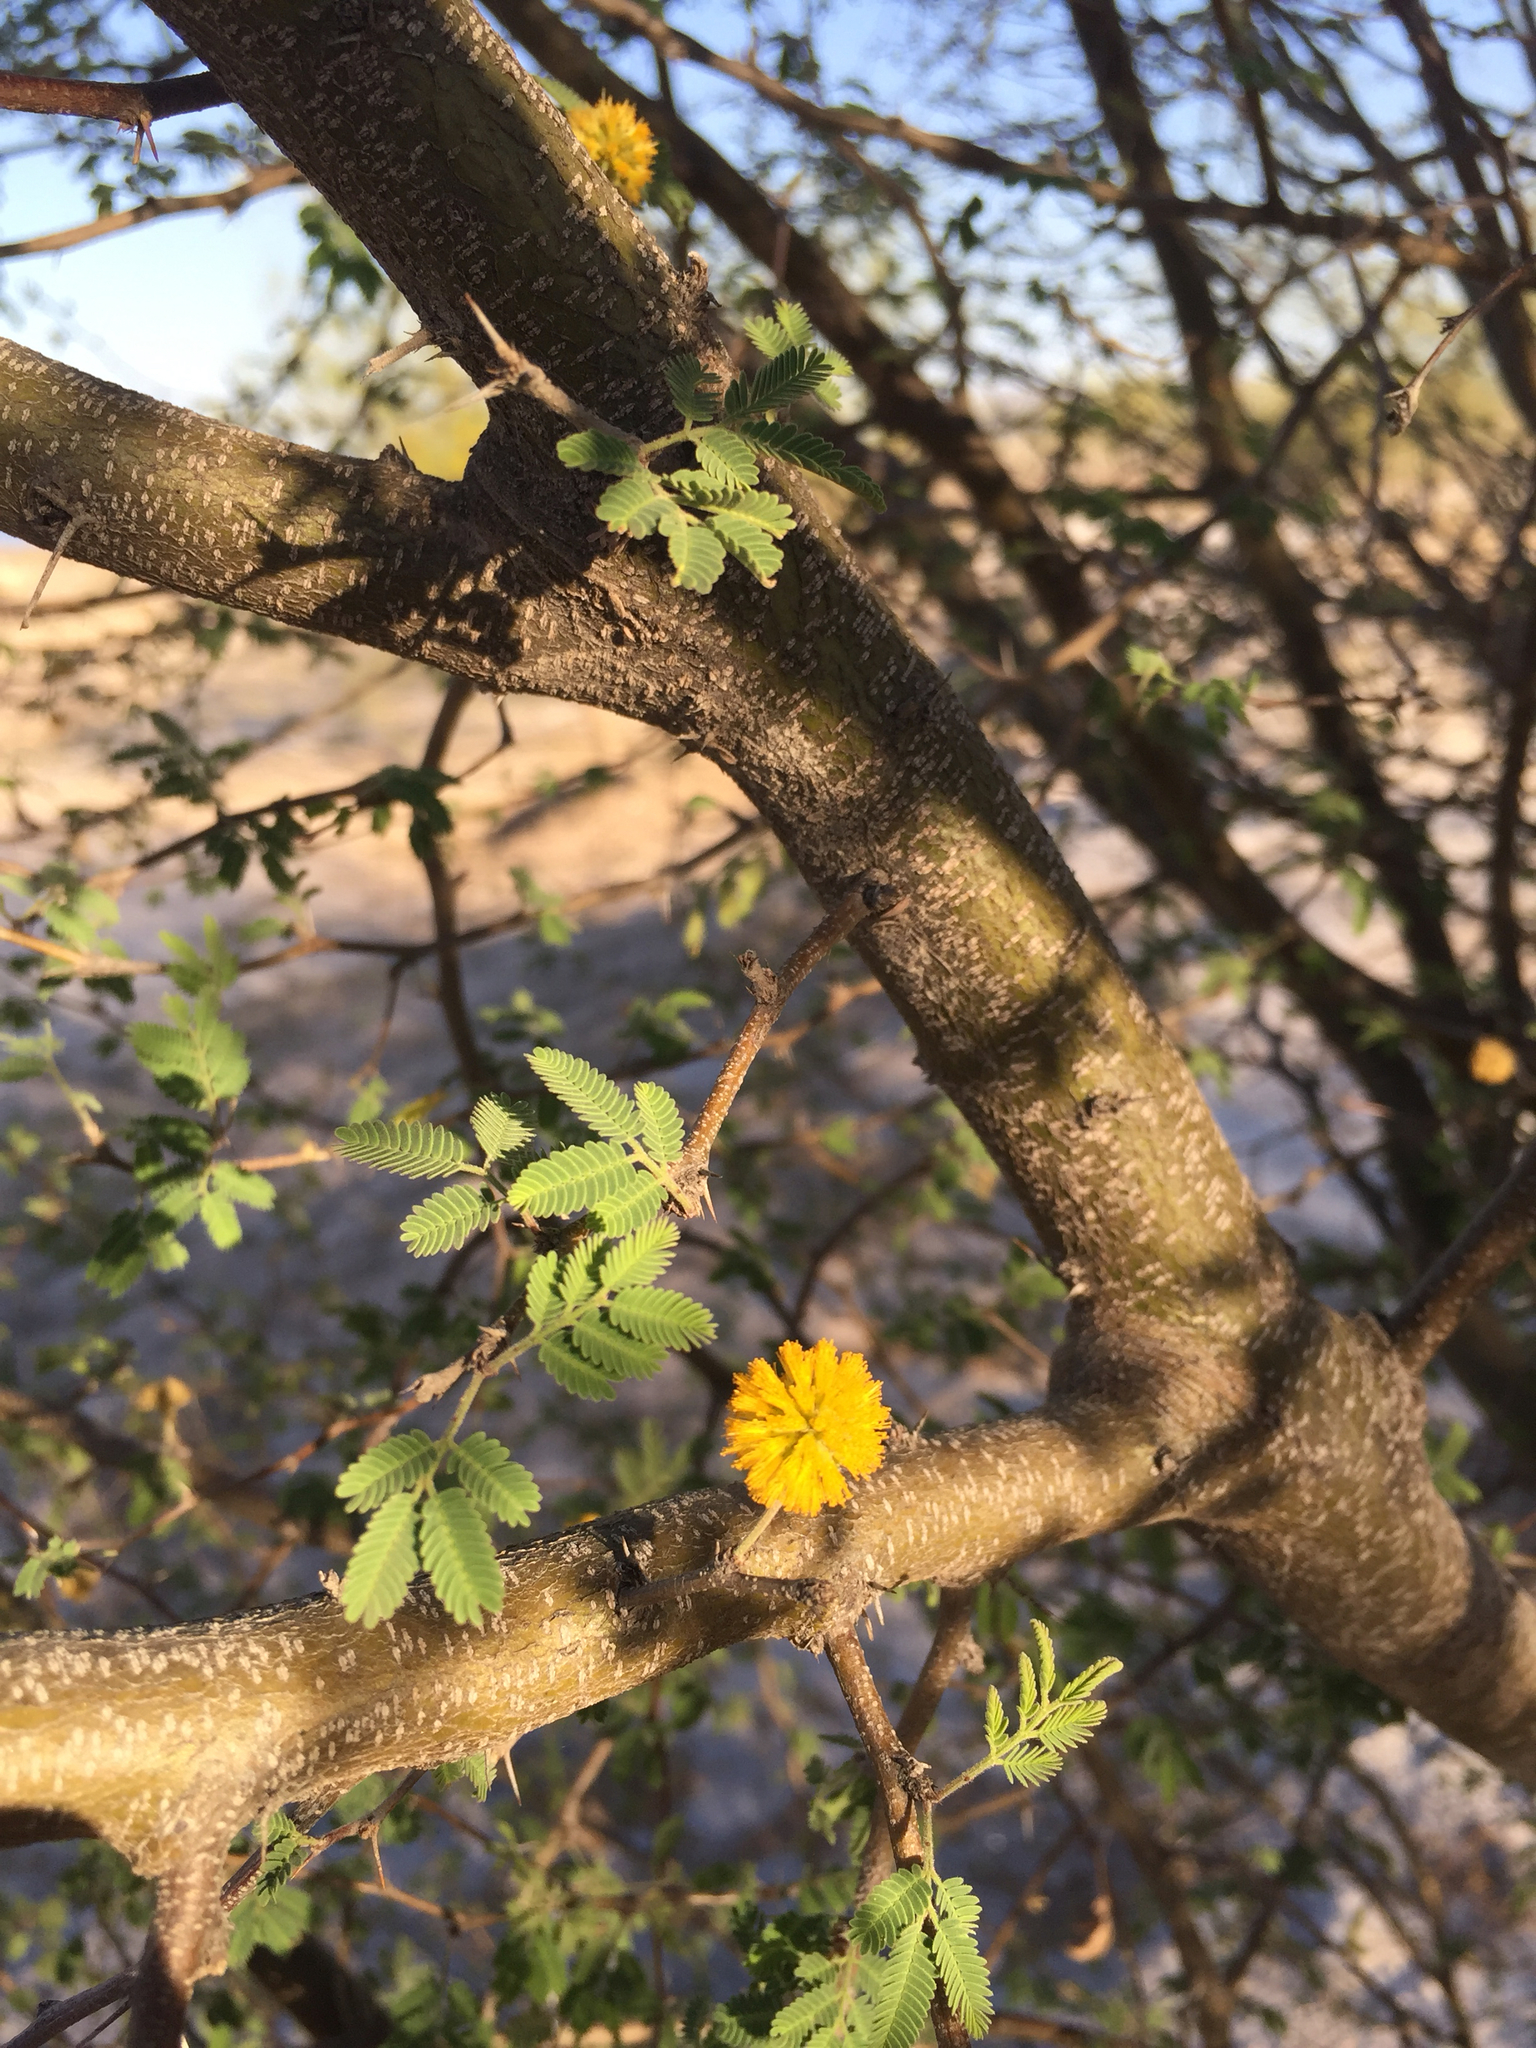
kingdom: Plantae
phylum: Tracheophyta
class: Magnoliopsida
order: Fabales
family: Fabaceae
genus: Vachellia
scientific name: Vachellia farnesiana
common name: Sweet acacia
